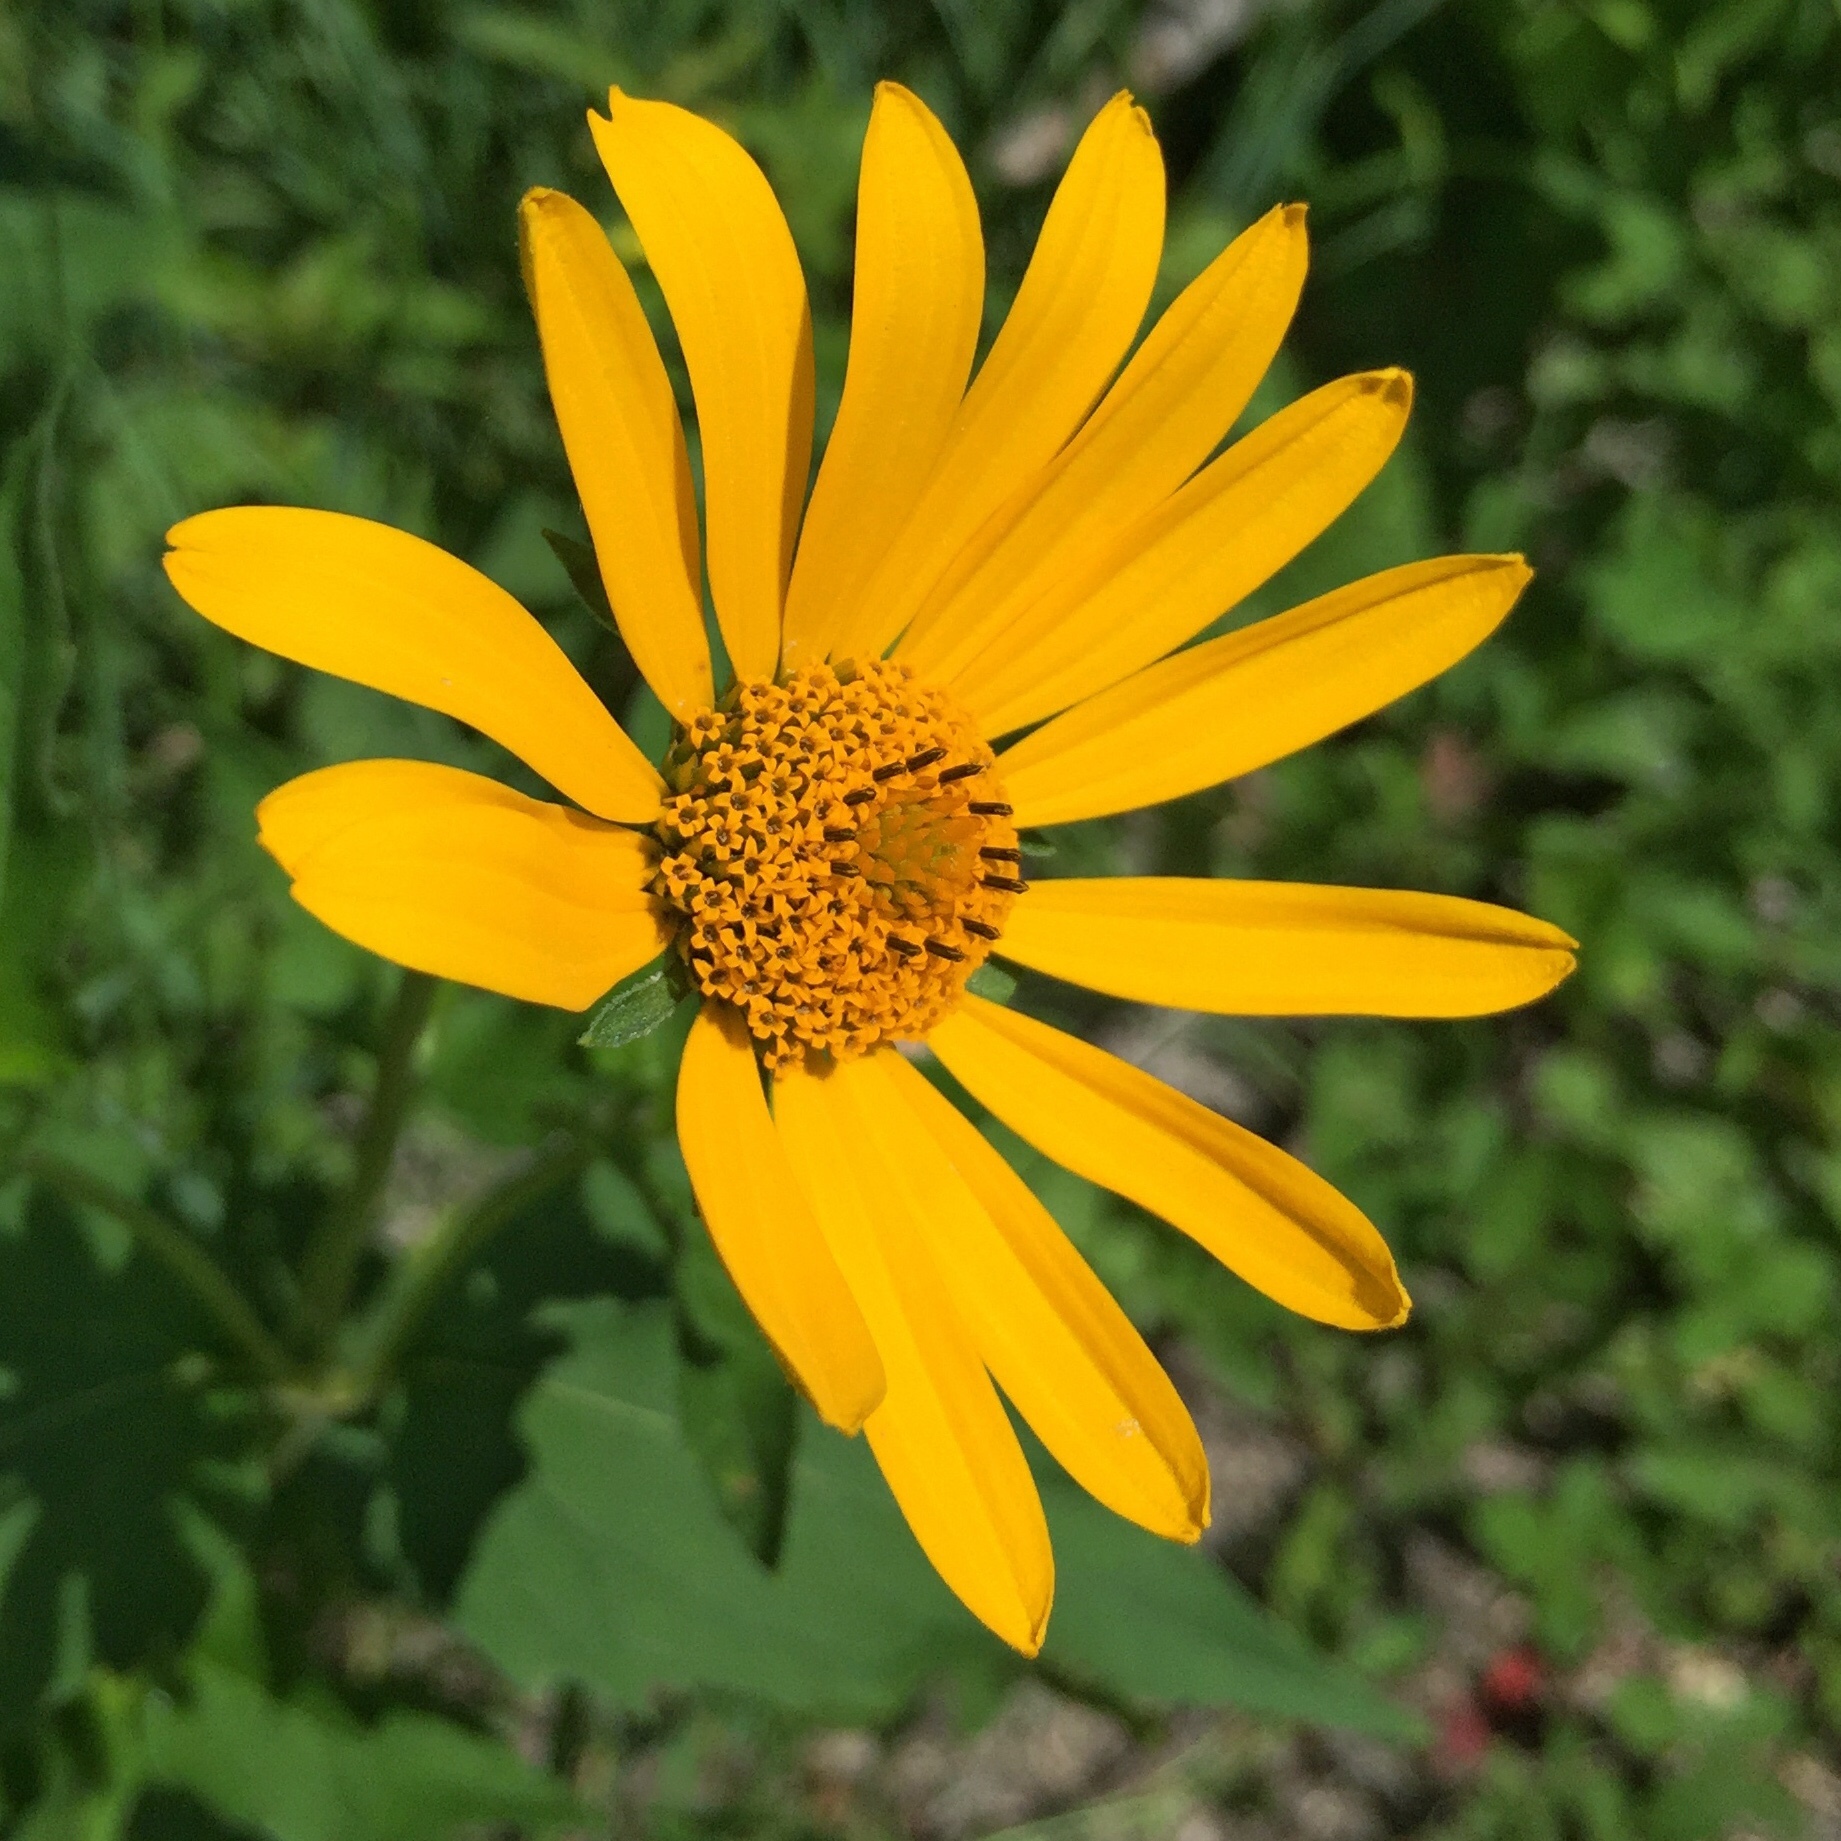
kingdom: Plantae
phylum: Tracheophyta
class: Magnoliopsida
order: Asterales
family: Asteraceae
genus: Heliopsis
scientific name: Heliopsis helianthoides
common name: False sunflower
